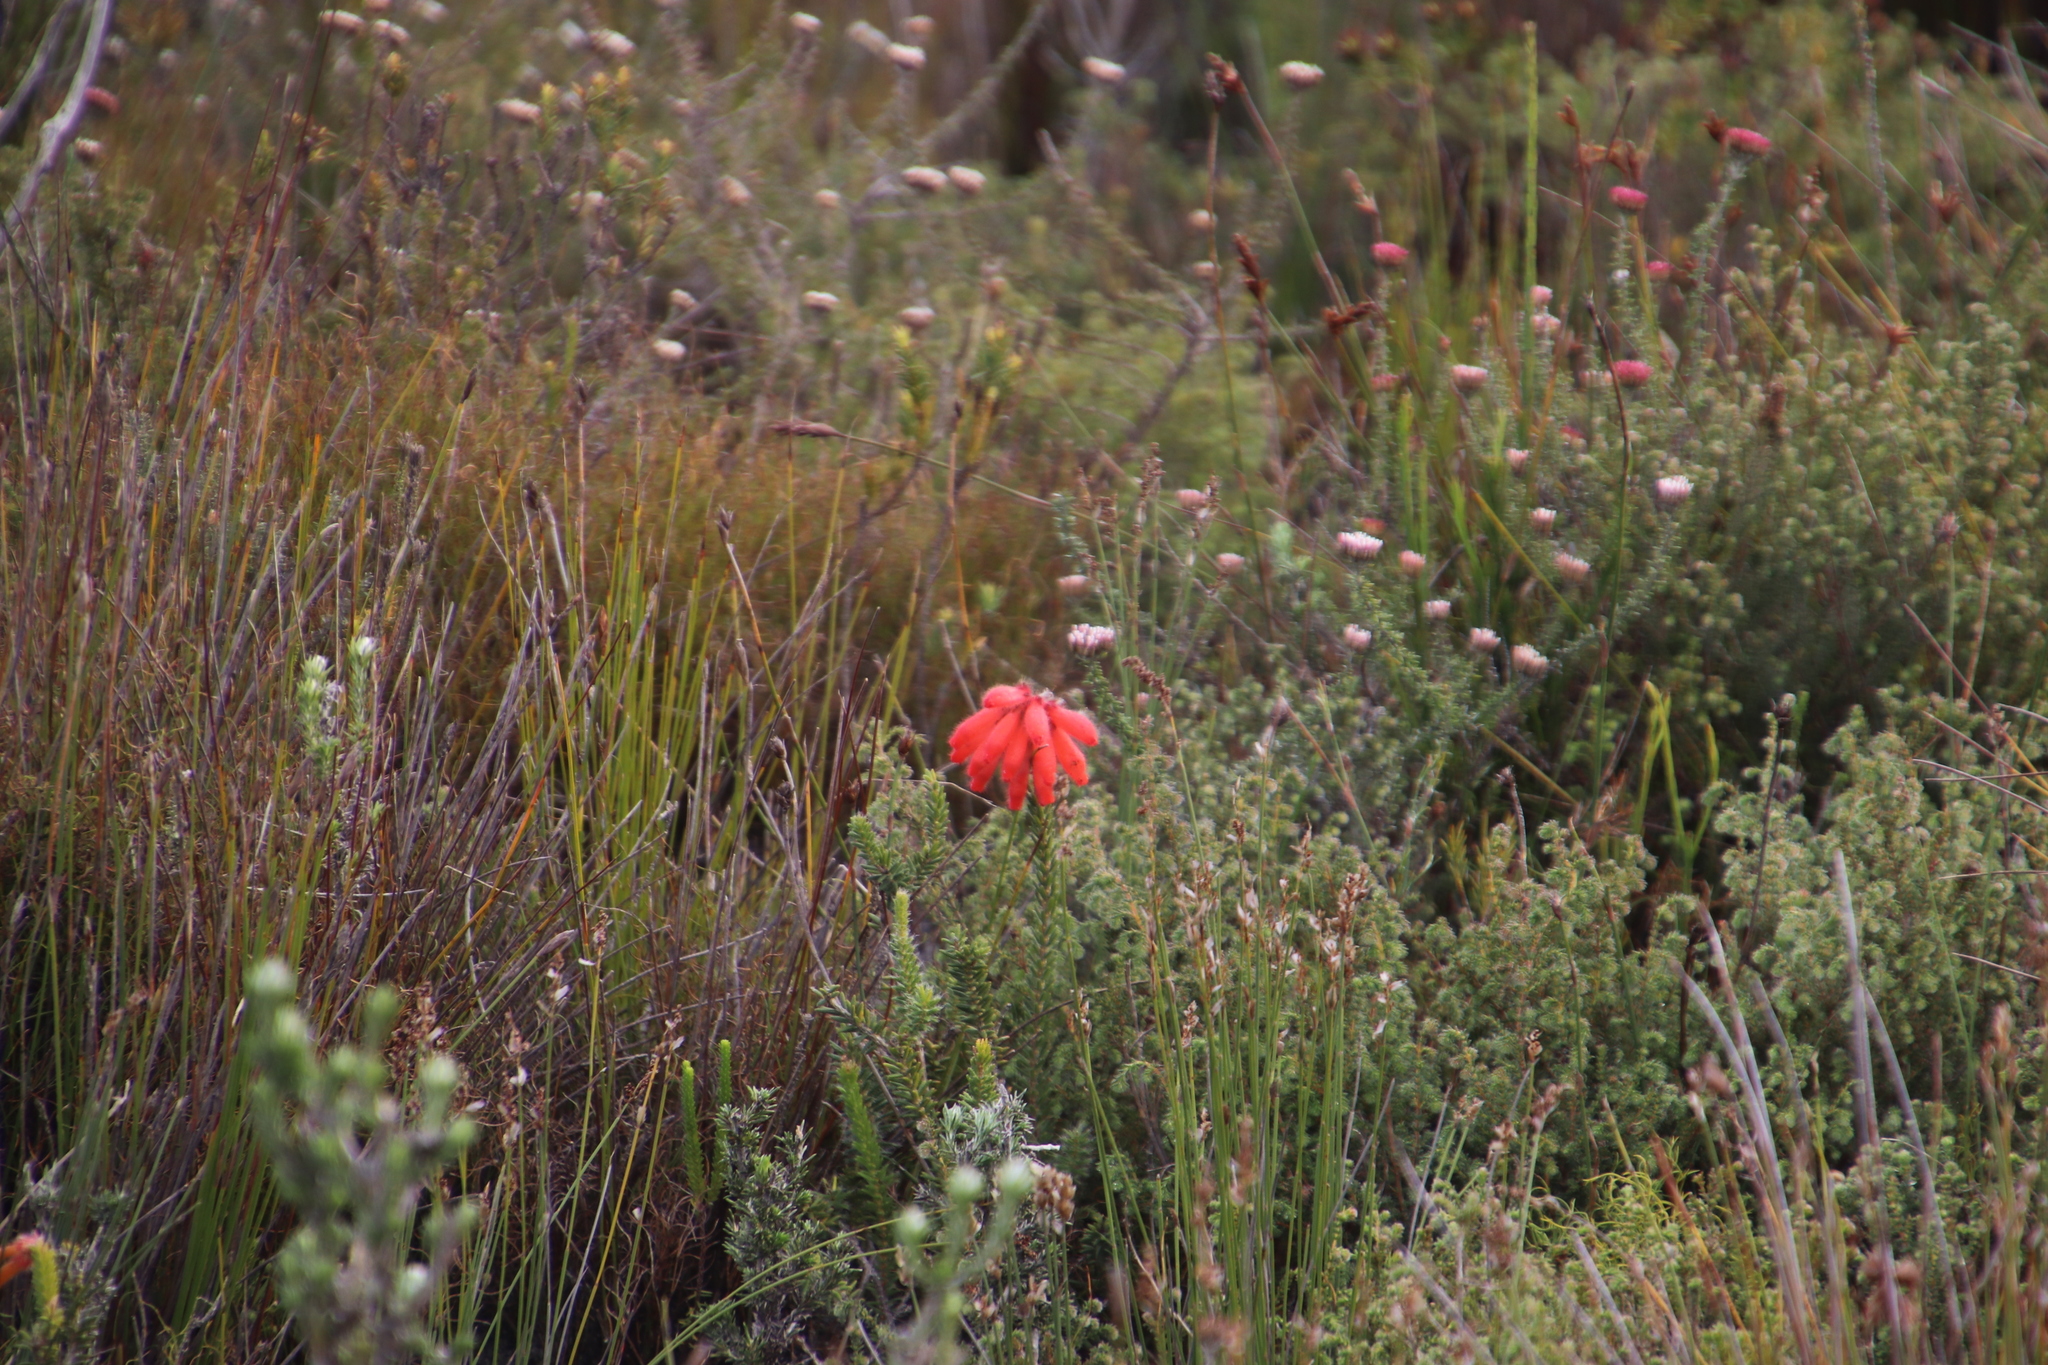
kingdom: Plantae
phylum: Tracheophyta
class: Magnoliopsida
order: Ericales
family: Ericaceae
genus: Erica
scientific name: Erica cerinthoides
